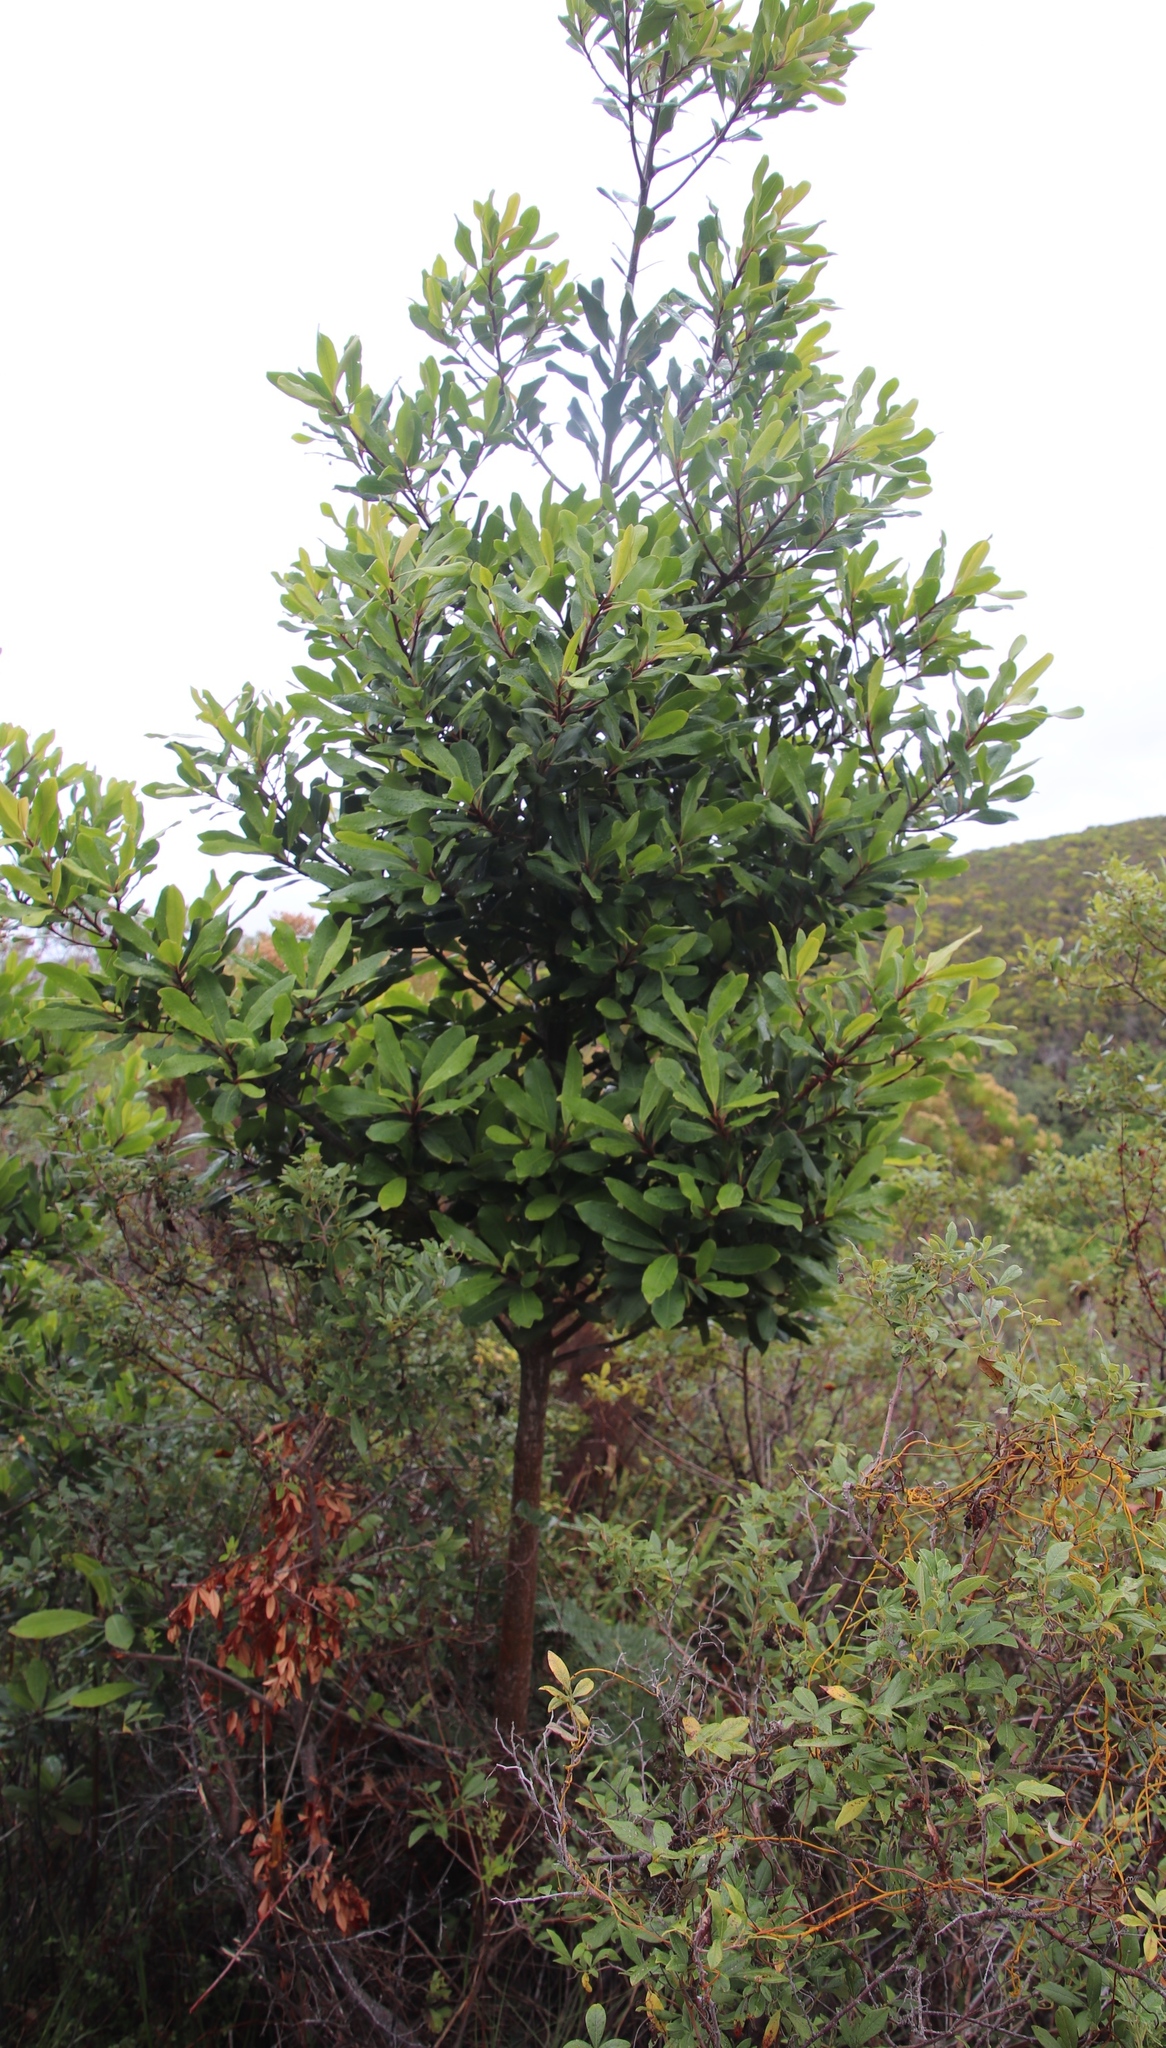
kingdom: Plantae
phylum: Tracheophyta
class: Magnoliopsida
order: Ericales
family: Primulaceae
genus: Myrsine
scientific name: Myrsine melanophloeos
